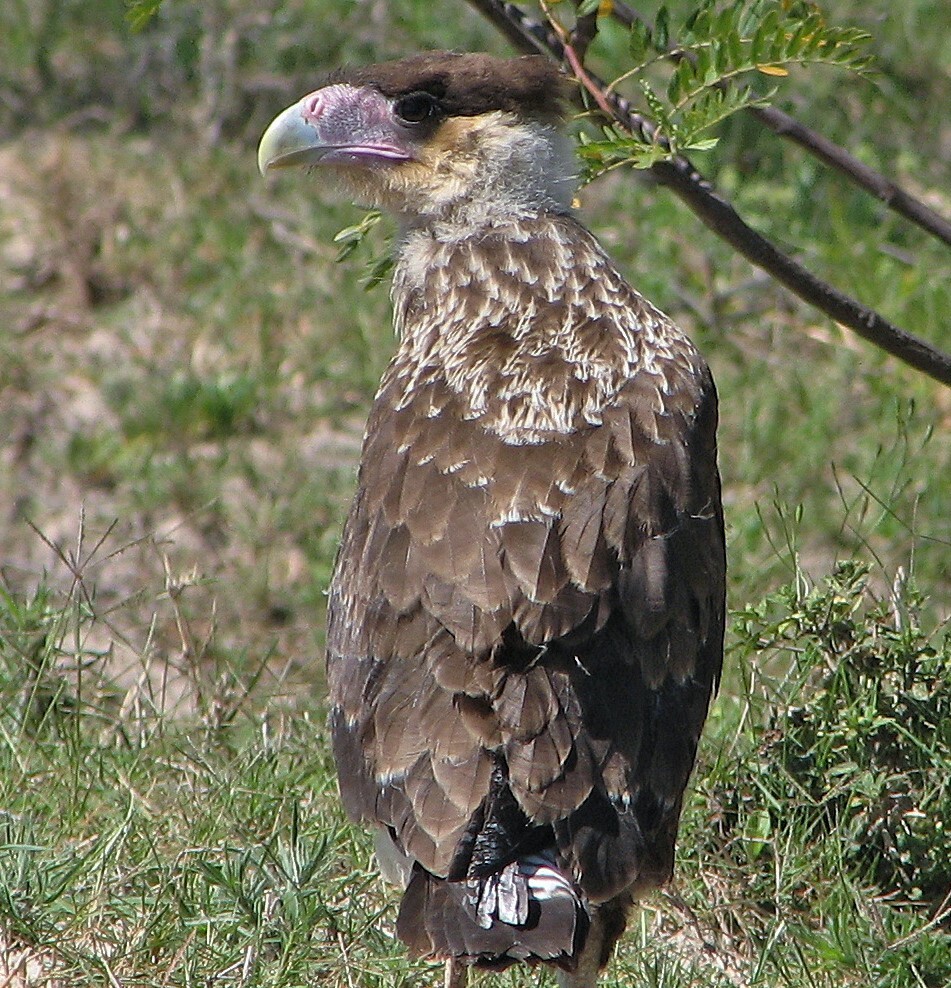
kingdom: Animalia
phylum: Chordata
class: Aves
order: Falconiformes
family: Falconidae
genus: Caracara
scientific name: Caracara plancus
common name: Southern caracara
